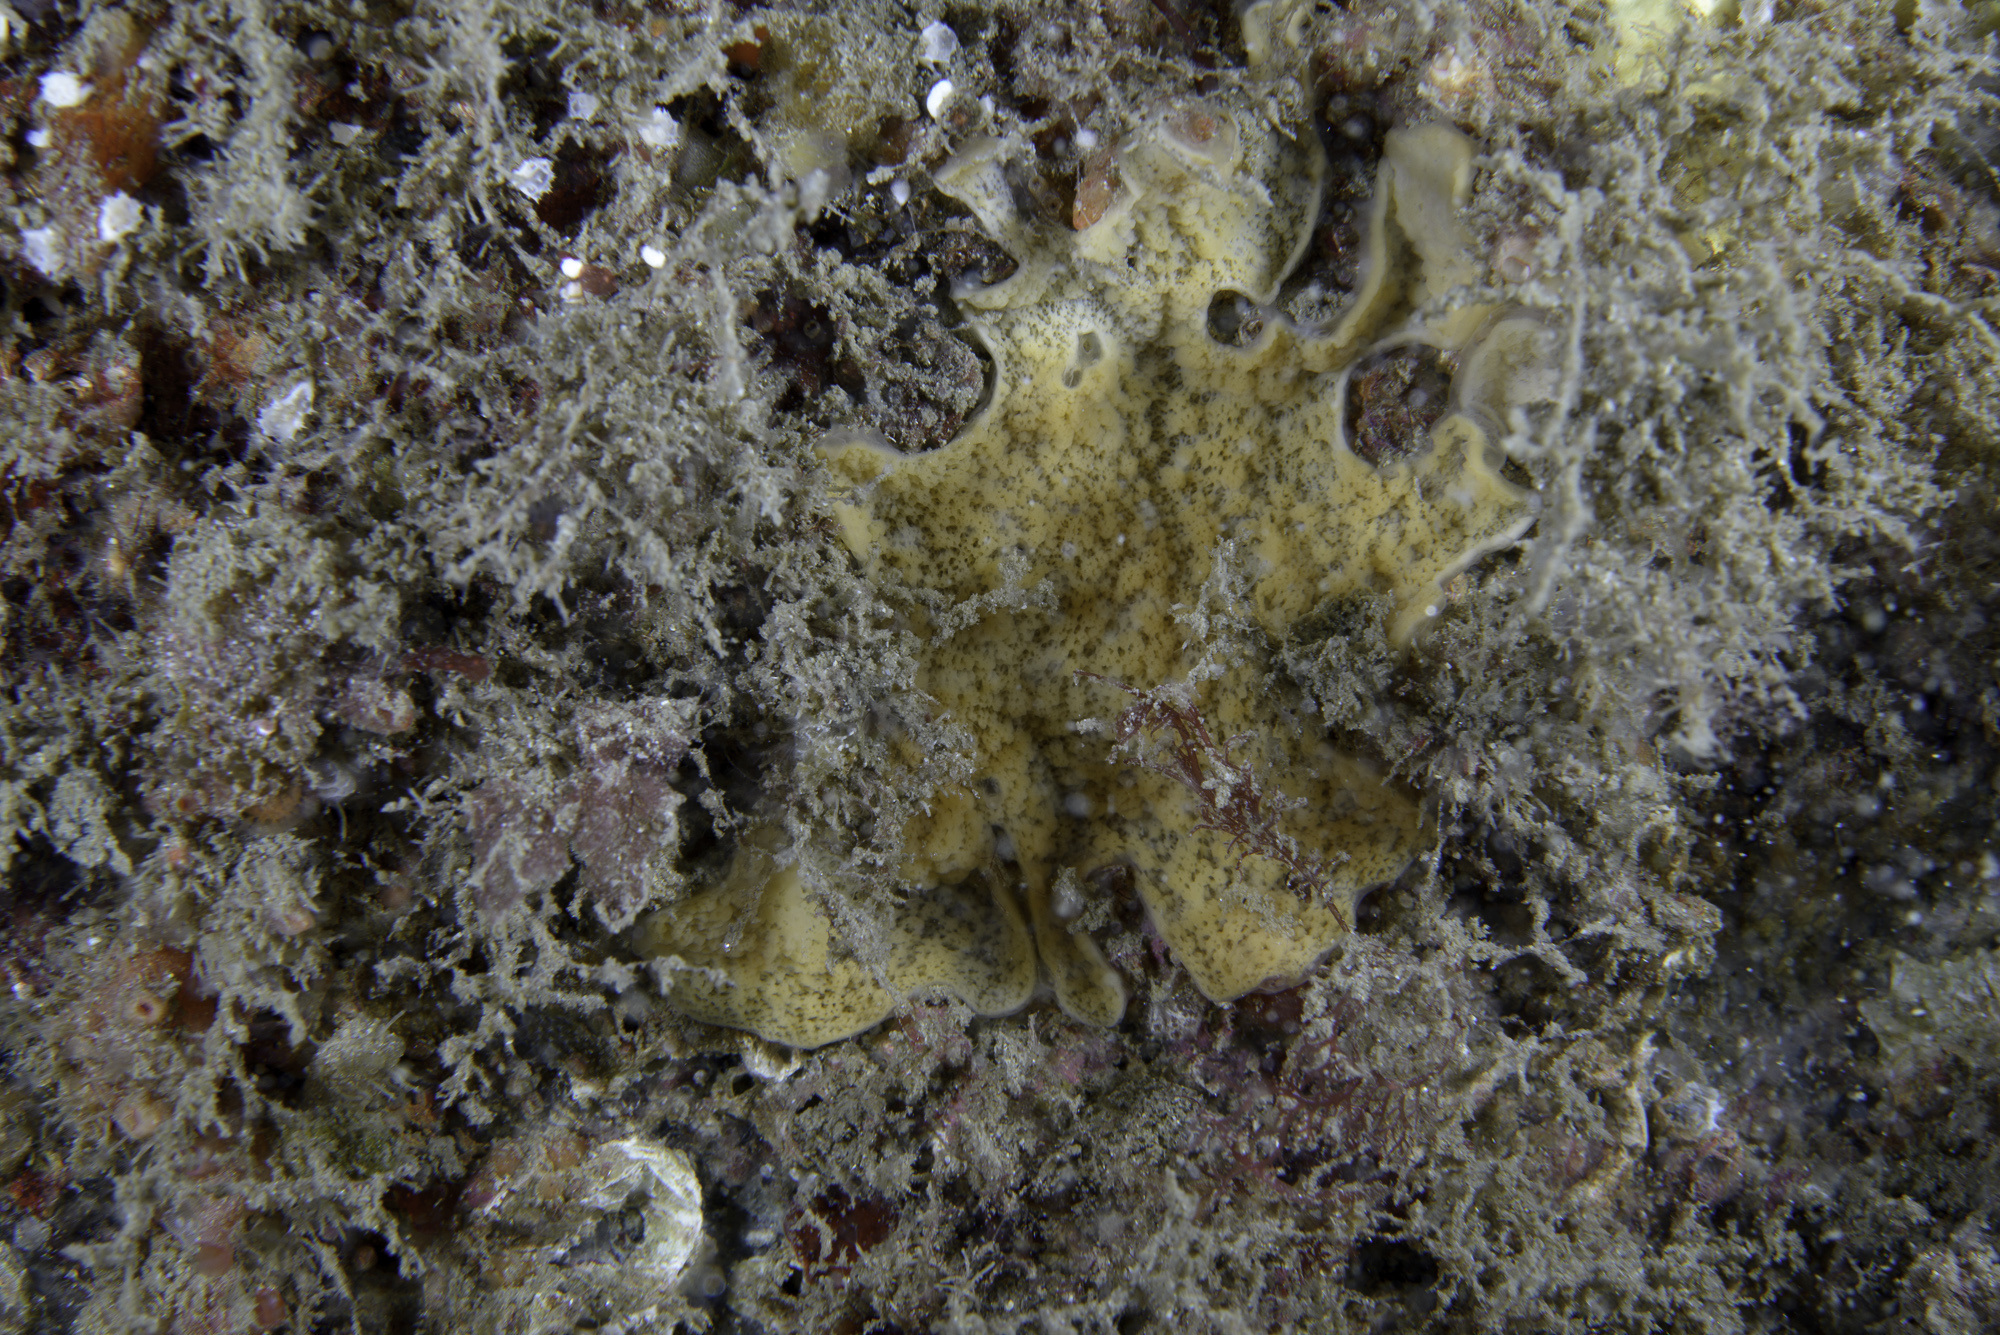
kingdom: Animalia
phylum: Porifera
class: Homoscleromorpha
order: Homosclerophorida
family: Plakinidae
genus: Plakina
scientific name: Plakina monolopha
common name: Simple-rayed membrane sponge
